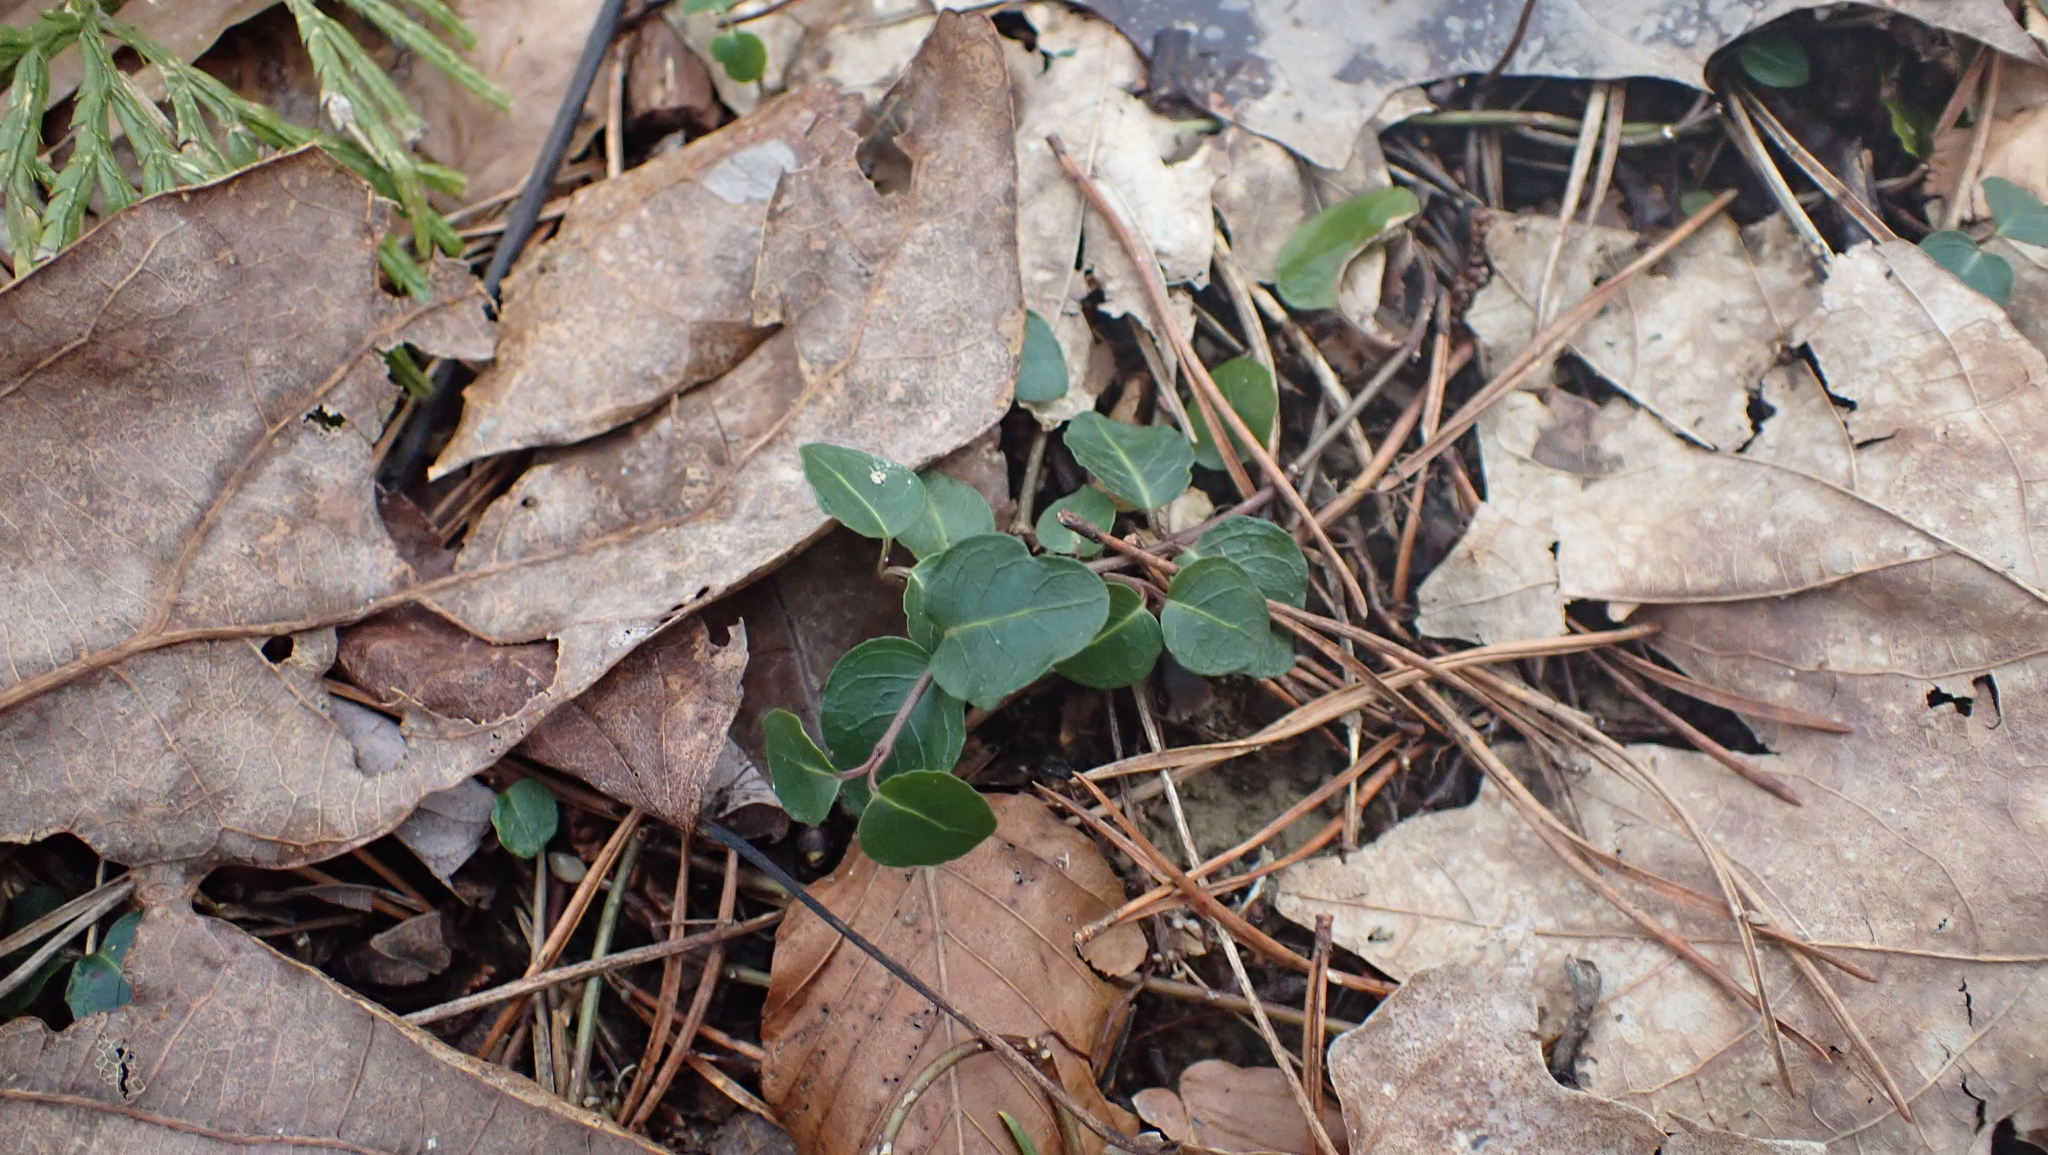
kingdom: Plantae
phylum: Tracheophyta
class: Magnoliopsida
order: Gentianales
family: Rubiaceae
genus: Mitchella
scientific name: Mitchella repens
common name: Partridge-berry
